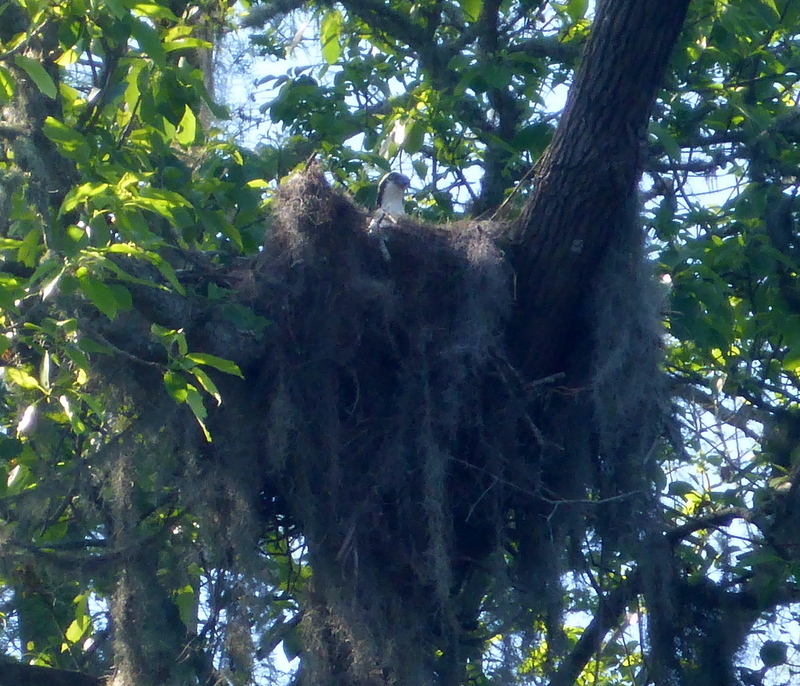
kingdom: Animalia
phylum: Chordata
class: Aves
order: Accipitriformes
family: Pandionidae
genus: Pandion
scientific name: Pandion haliaetus
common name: Osprey
